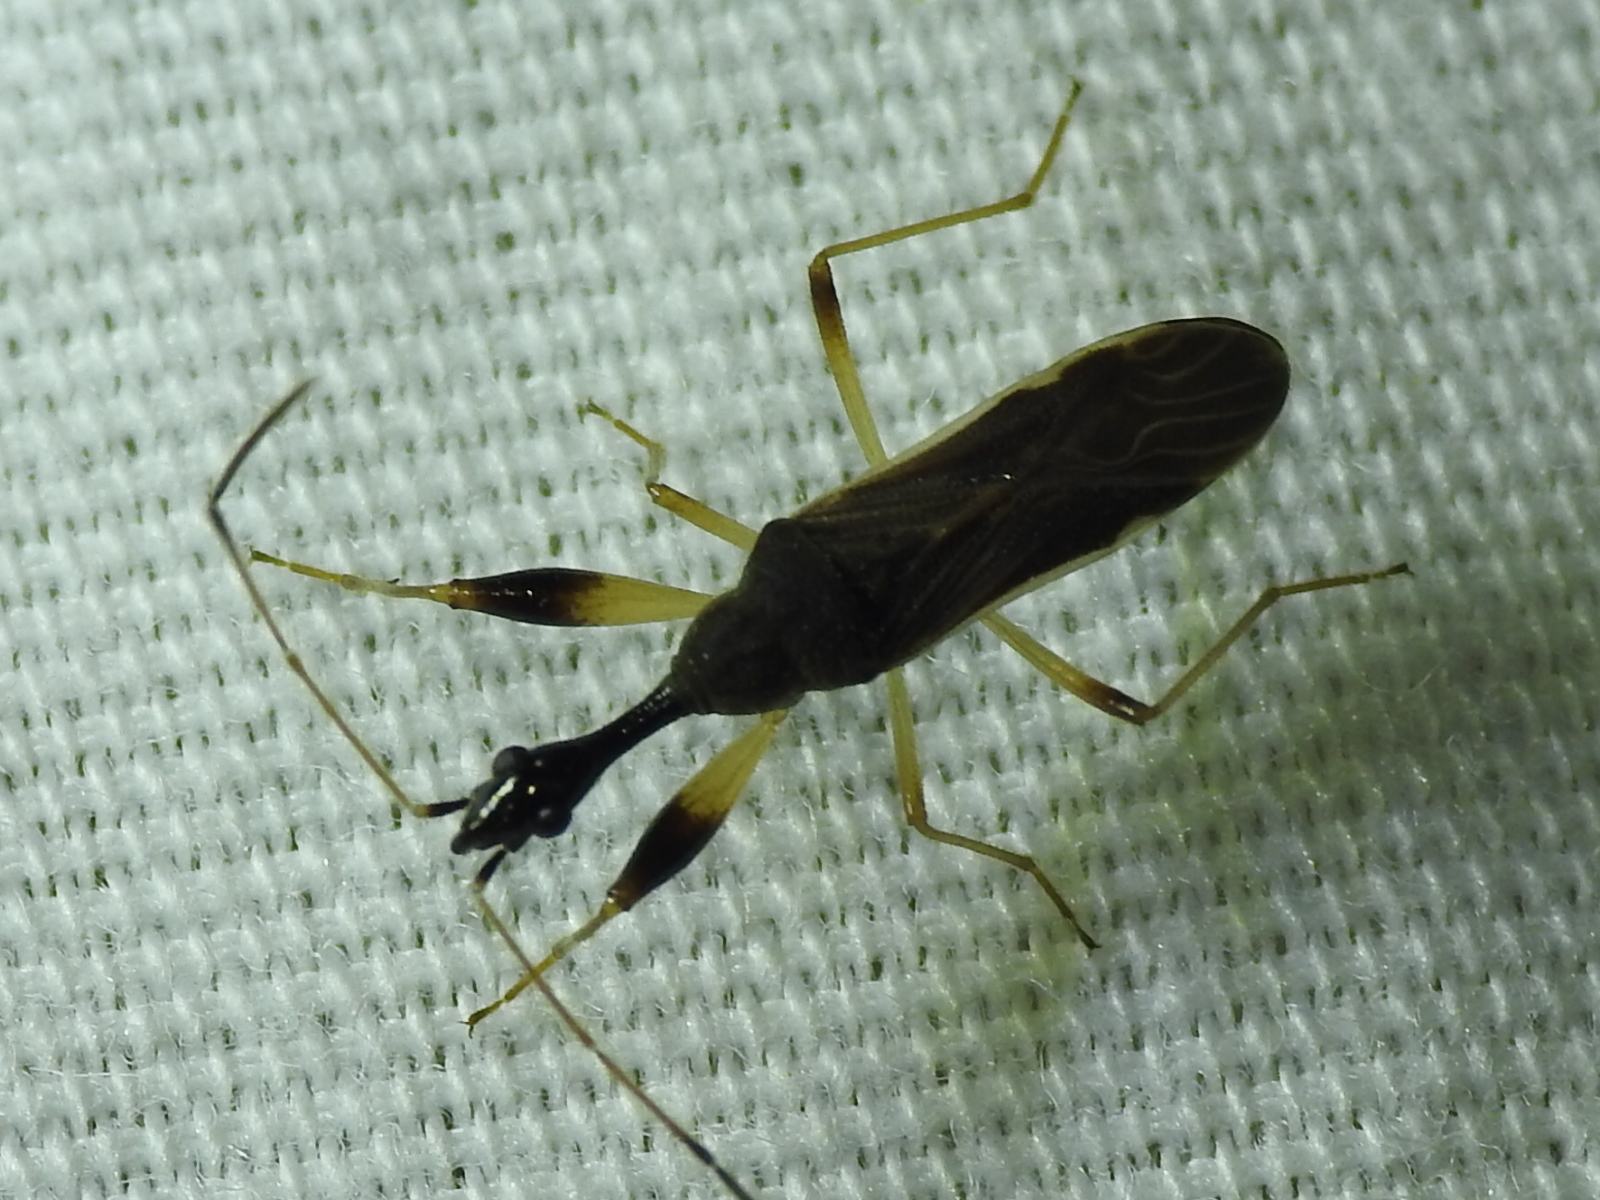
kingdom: Animalia
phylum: Arthropoda
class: Insecta
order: Hemiptera
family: Rhyparochromidae
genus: Myodocha
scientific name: Myodocha serripes
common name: Long-necked seed bug
